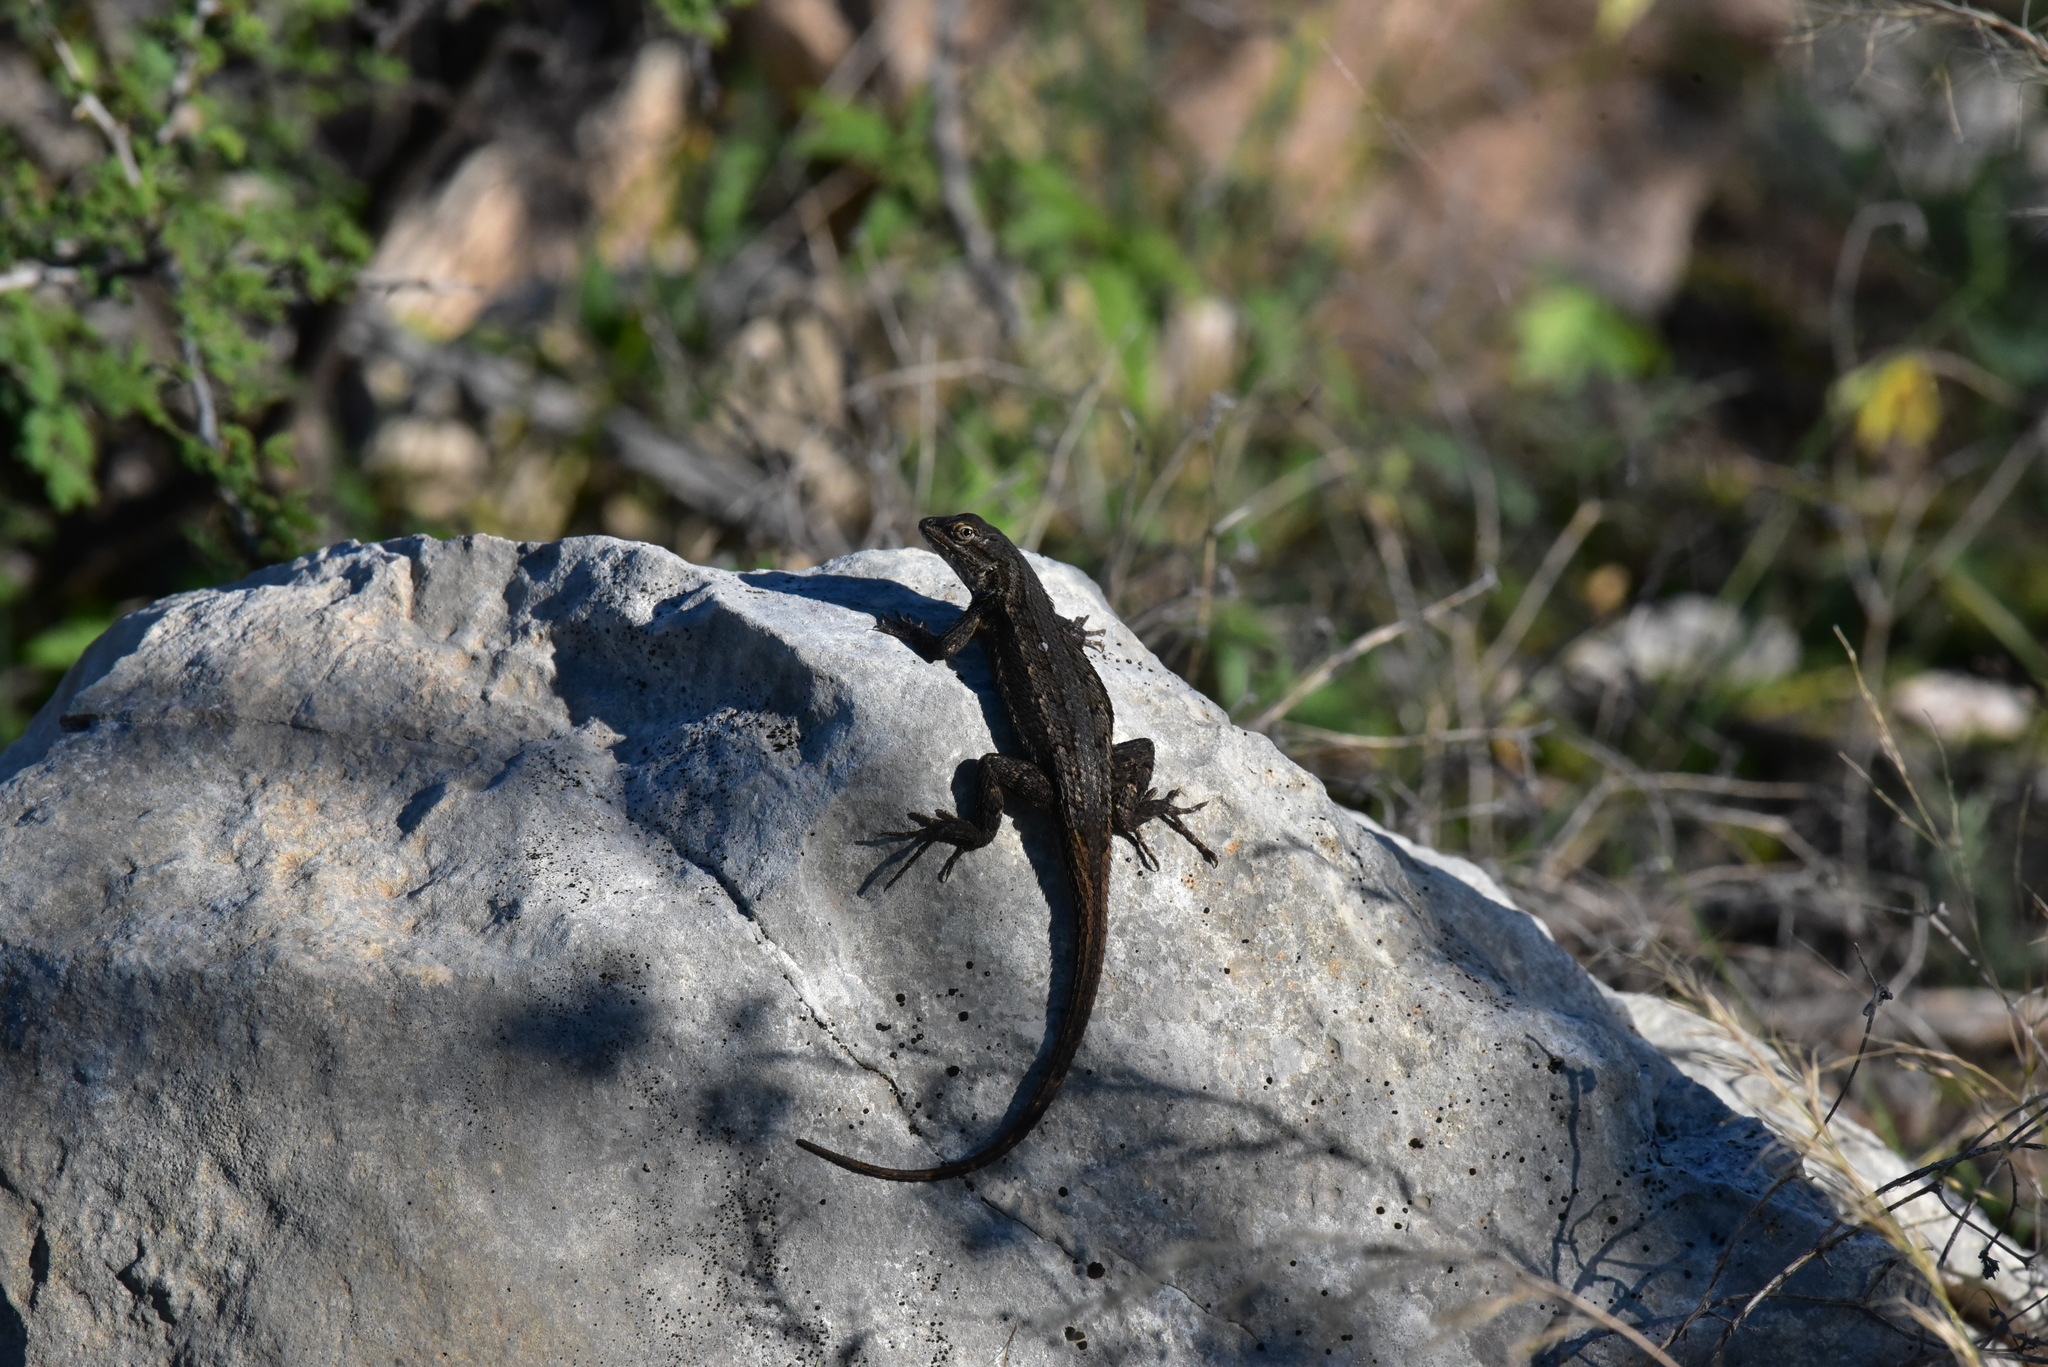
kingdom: Animalia
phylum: Chordata
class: Squamata
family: Phrynosomatidae
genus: Sceloporus
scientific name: Sceloporus consobrinus
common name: Southern prairie lizard
